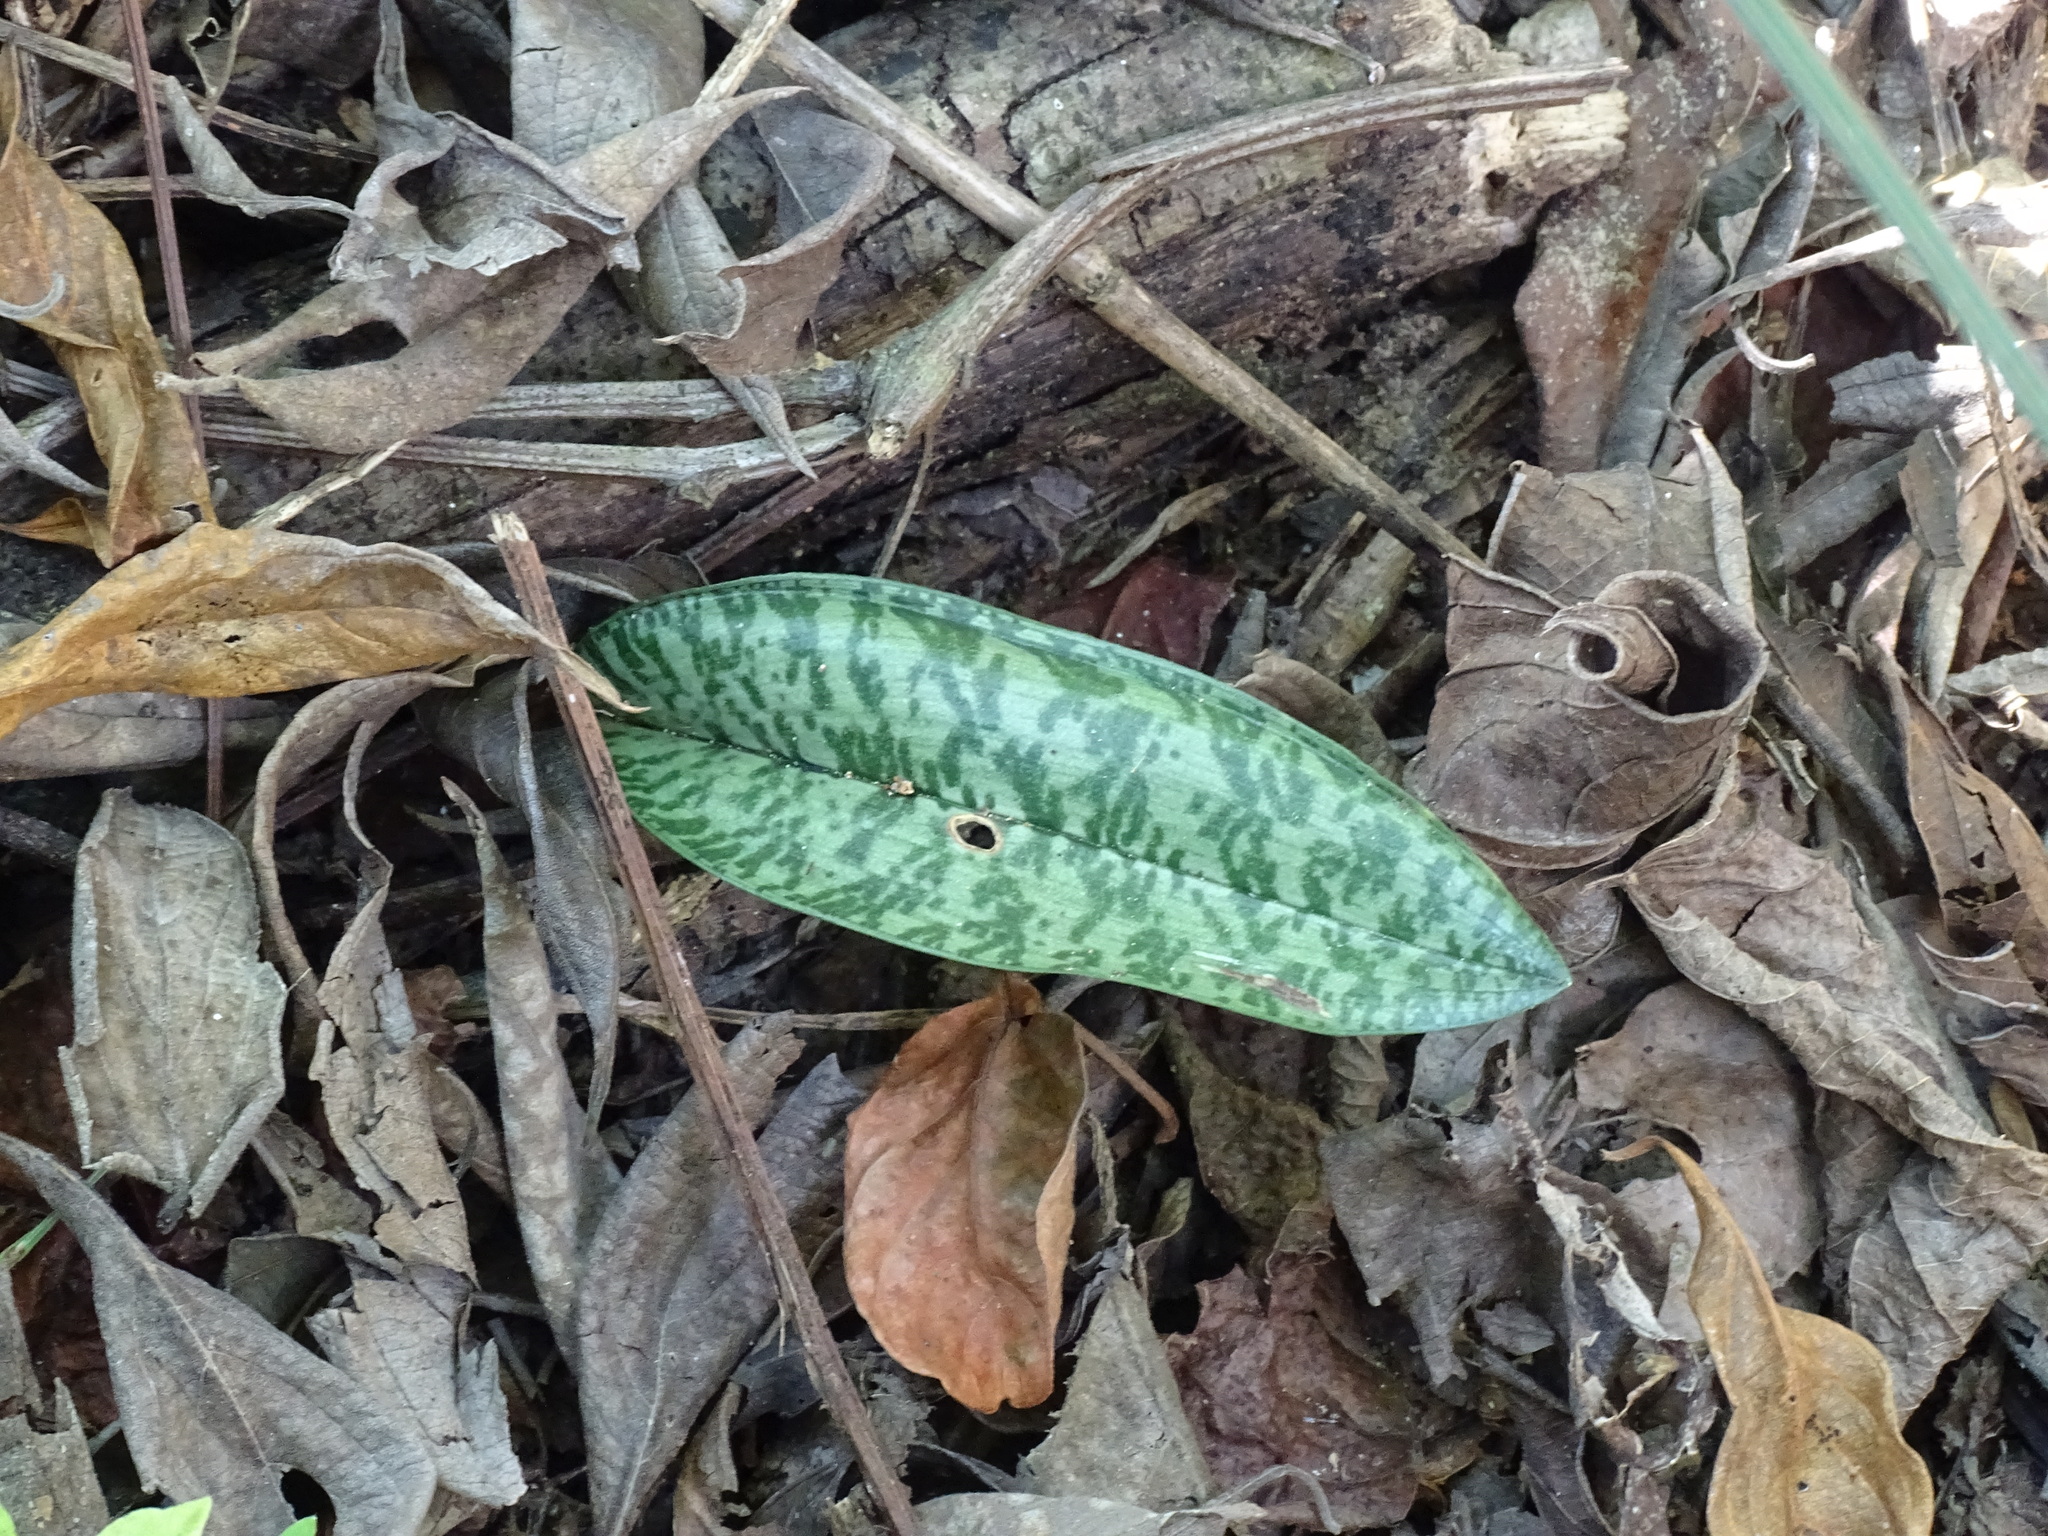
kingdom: Plantae
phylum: Tracheophyta
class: Liliopsida
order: Asparagales
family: Orchidaceae
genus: Eulophia
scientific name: Eulophia maculata
